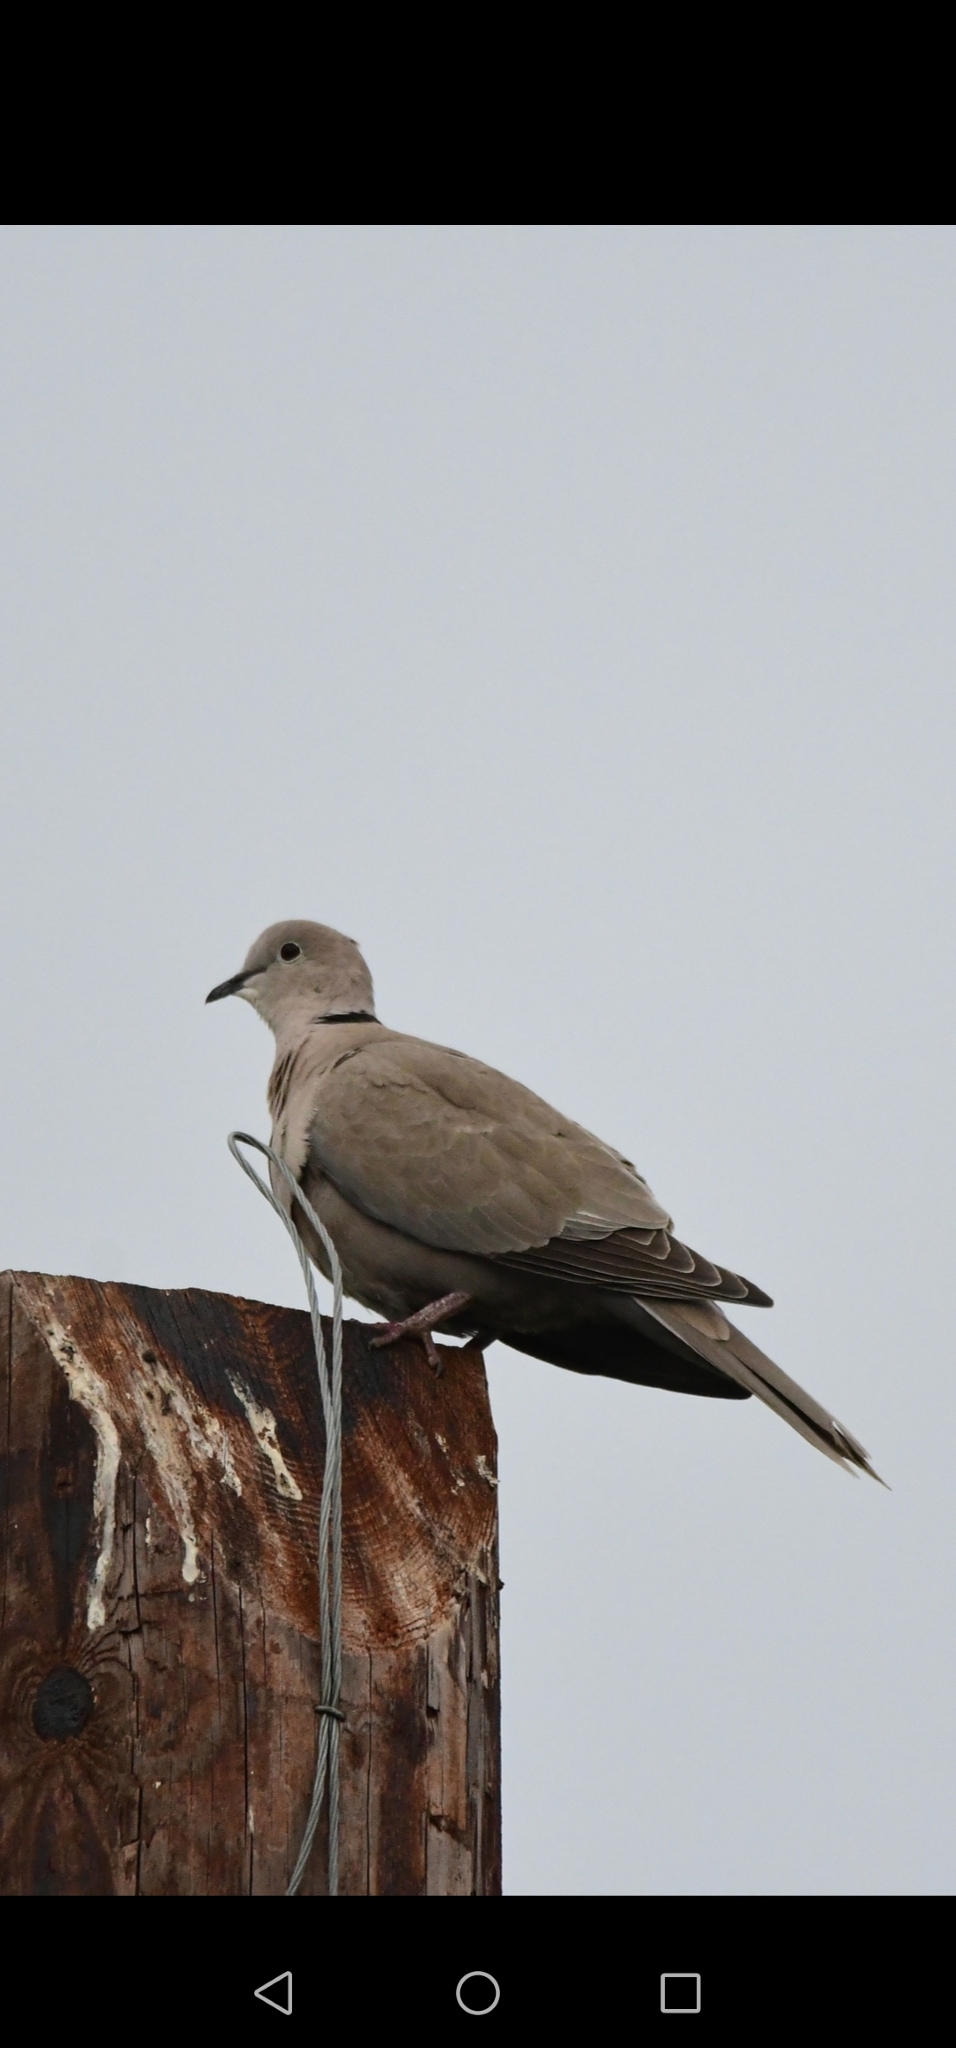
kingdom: Animalia
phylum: Chordata
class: Aves
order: Columbiformes
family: Columbidae
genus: Streptopelia
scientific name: Streptopelia decaocto
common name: Eurasian collared dove
